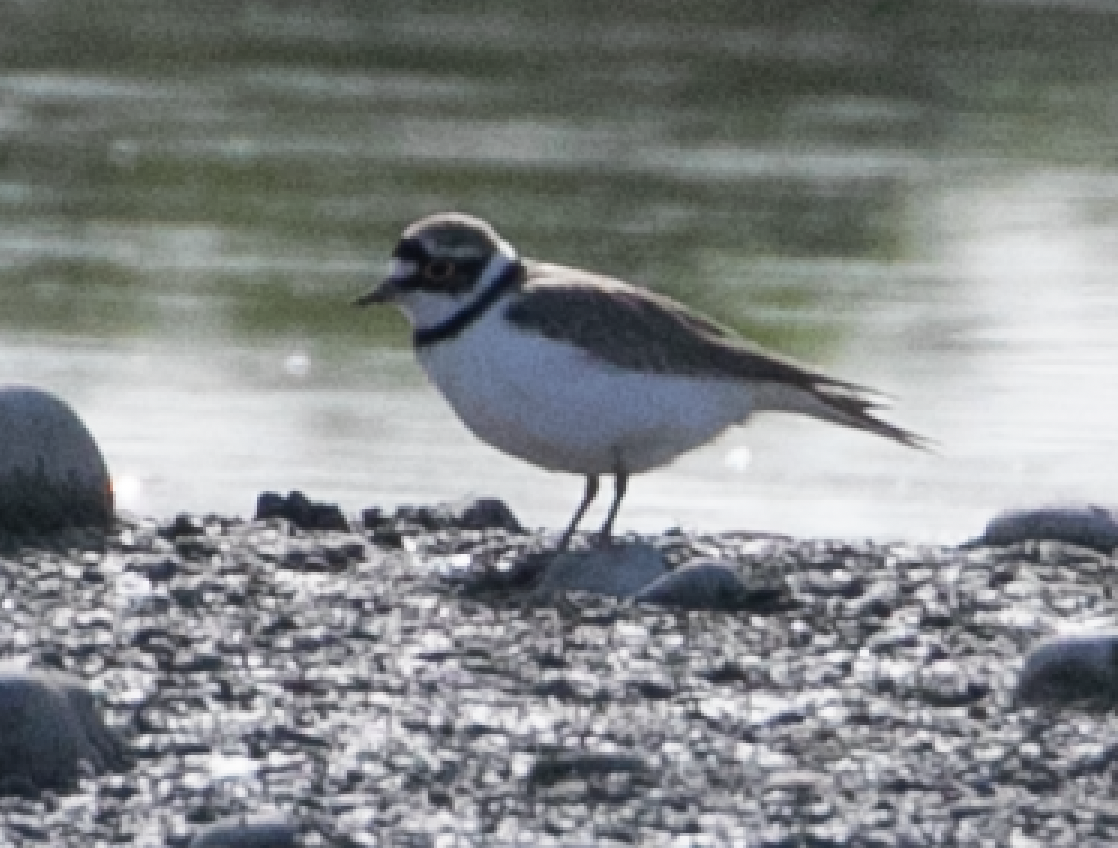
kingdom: Animalia
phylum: Chordata
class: Aves
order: Charadriiformes
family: Charadriidae
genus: Charadrius
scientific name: Charadrius dubius
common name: Little ringed plover
